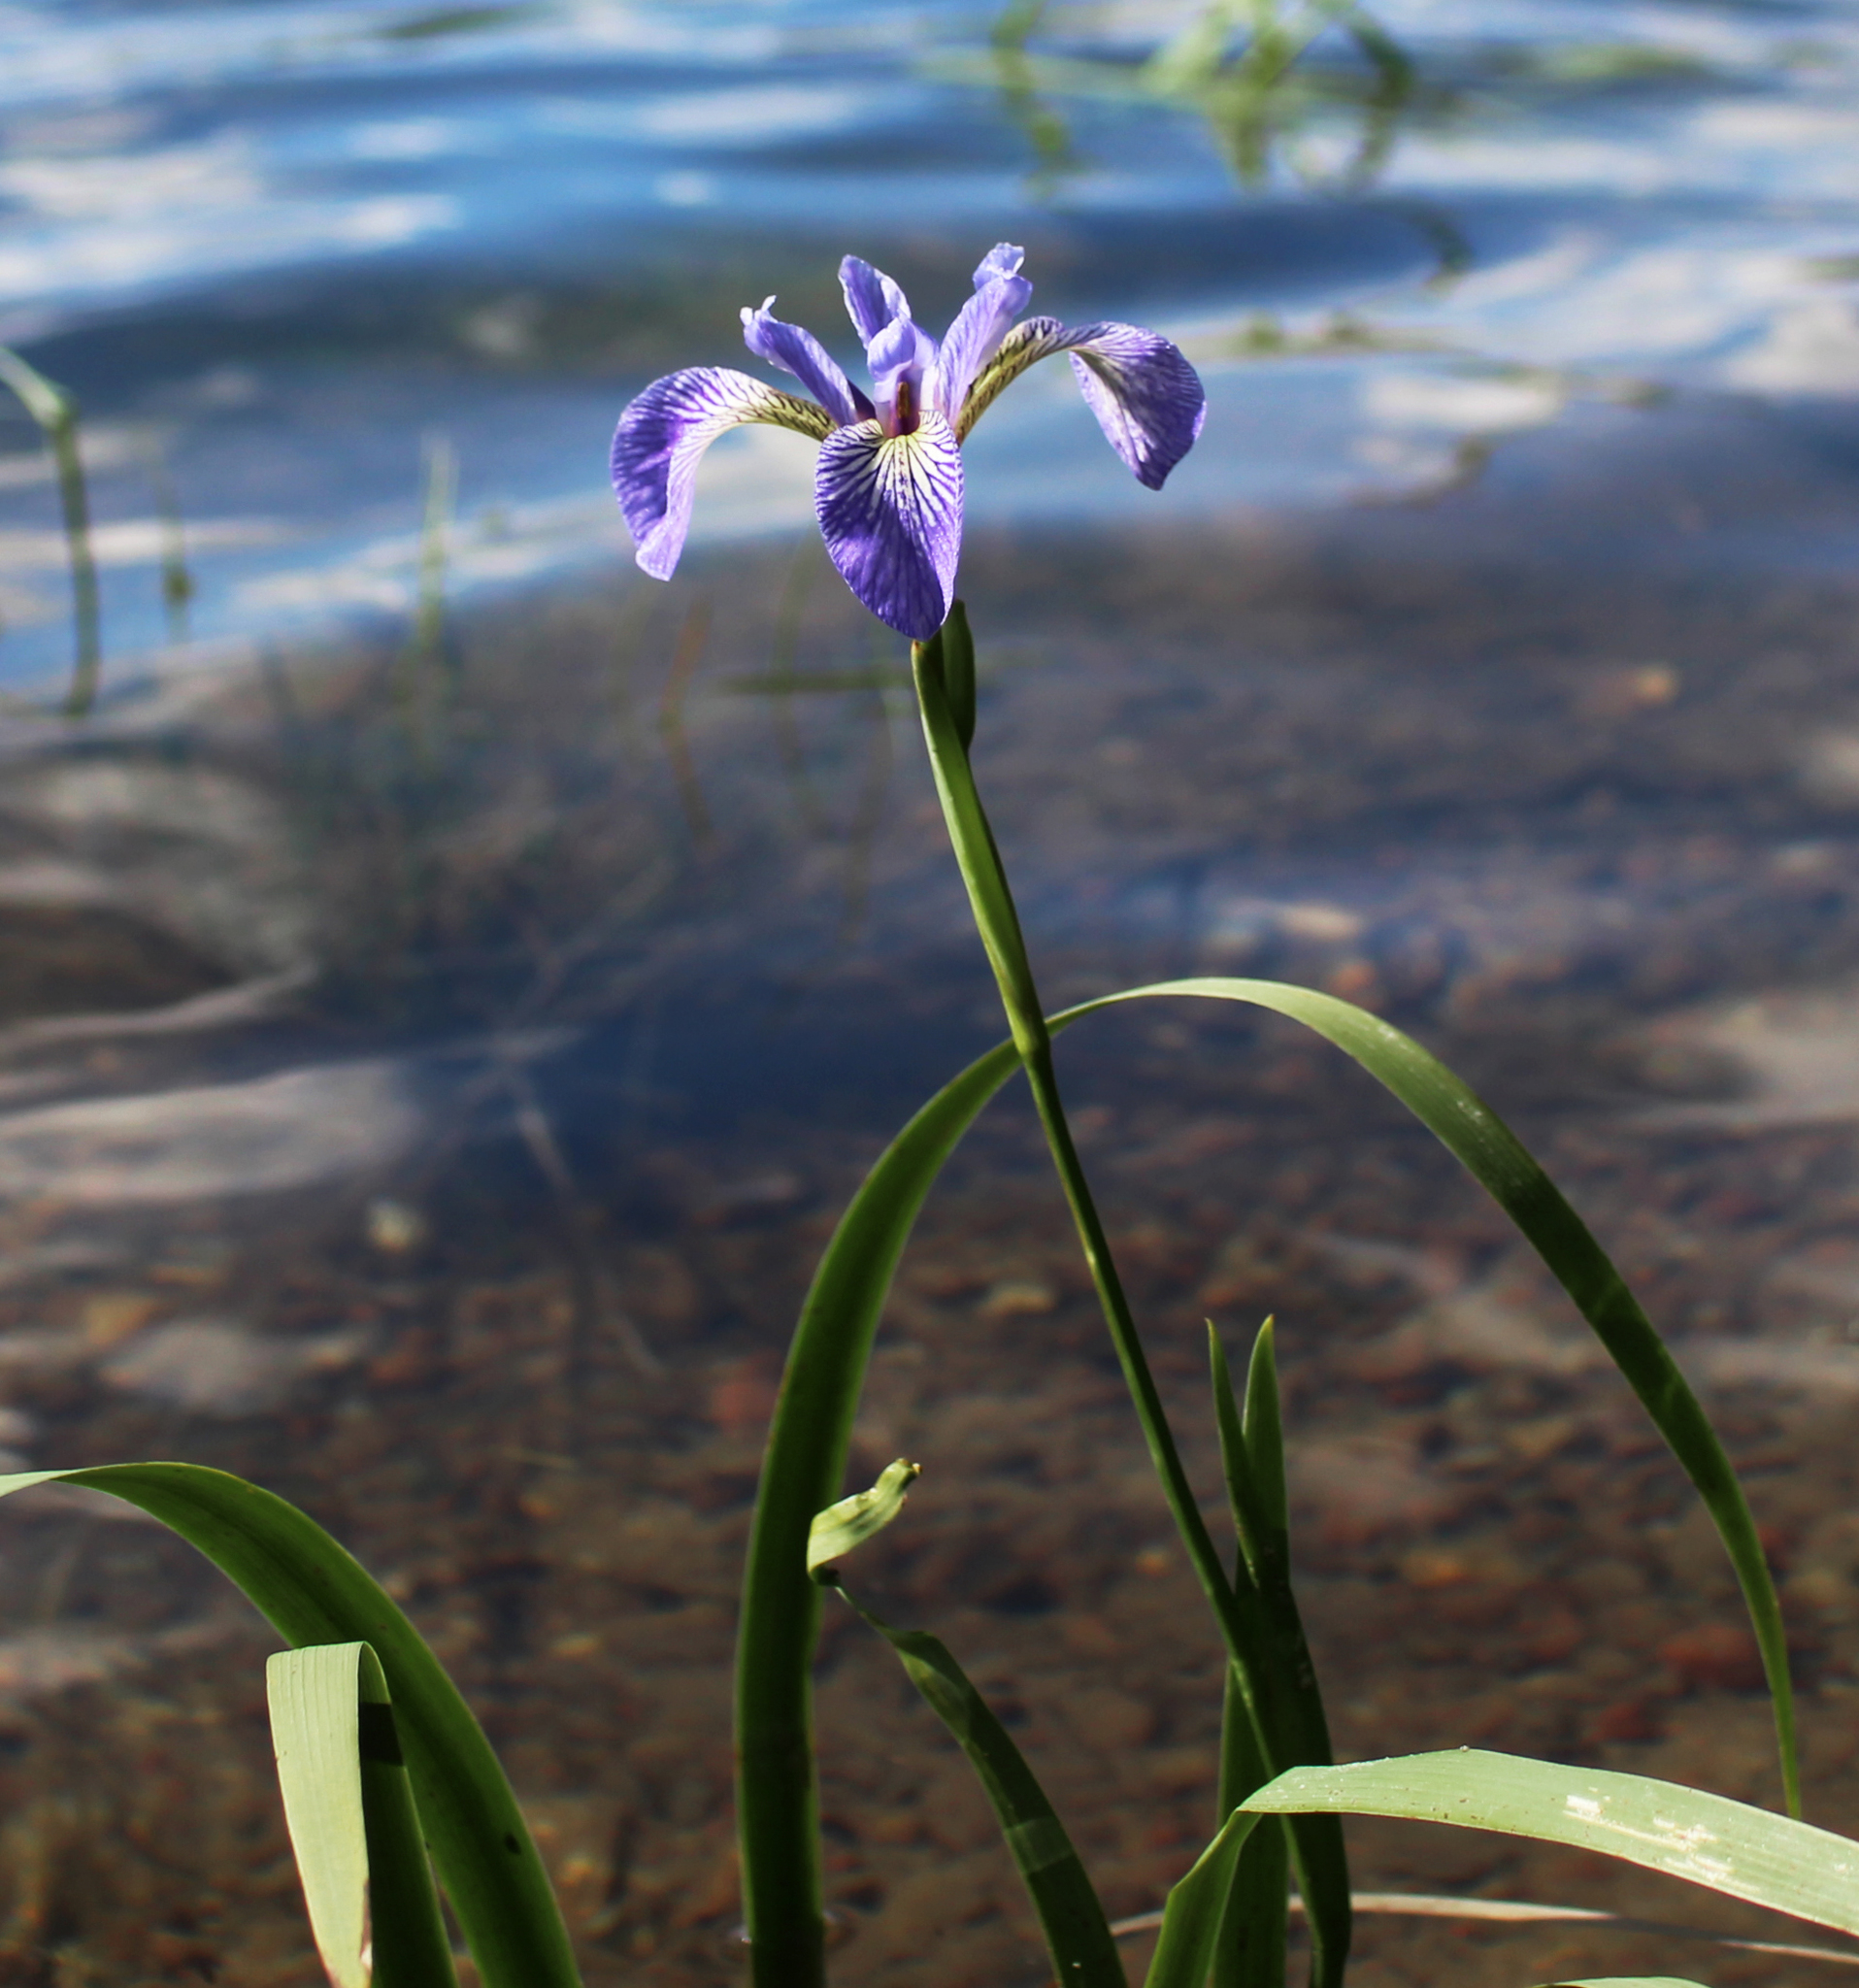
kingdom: Plantae
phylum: Tracheophyta
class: Liliopsida
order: Asparagales
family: Iridaceae
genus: Iris
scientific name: Iris versicolor
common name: Purple iris
